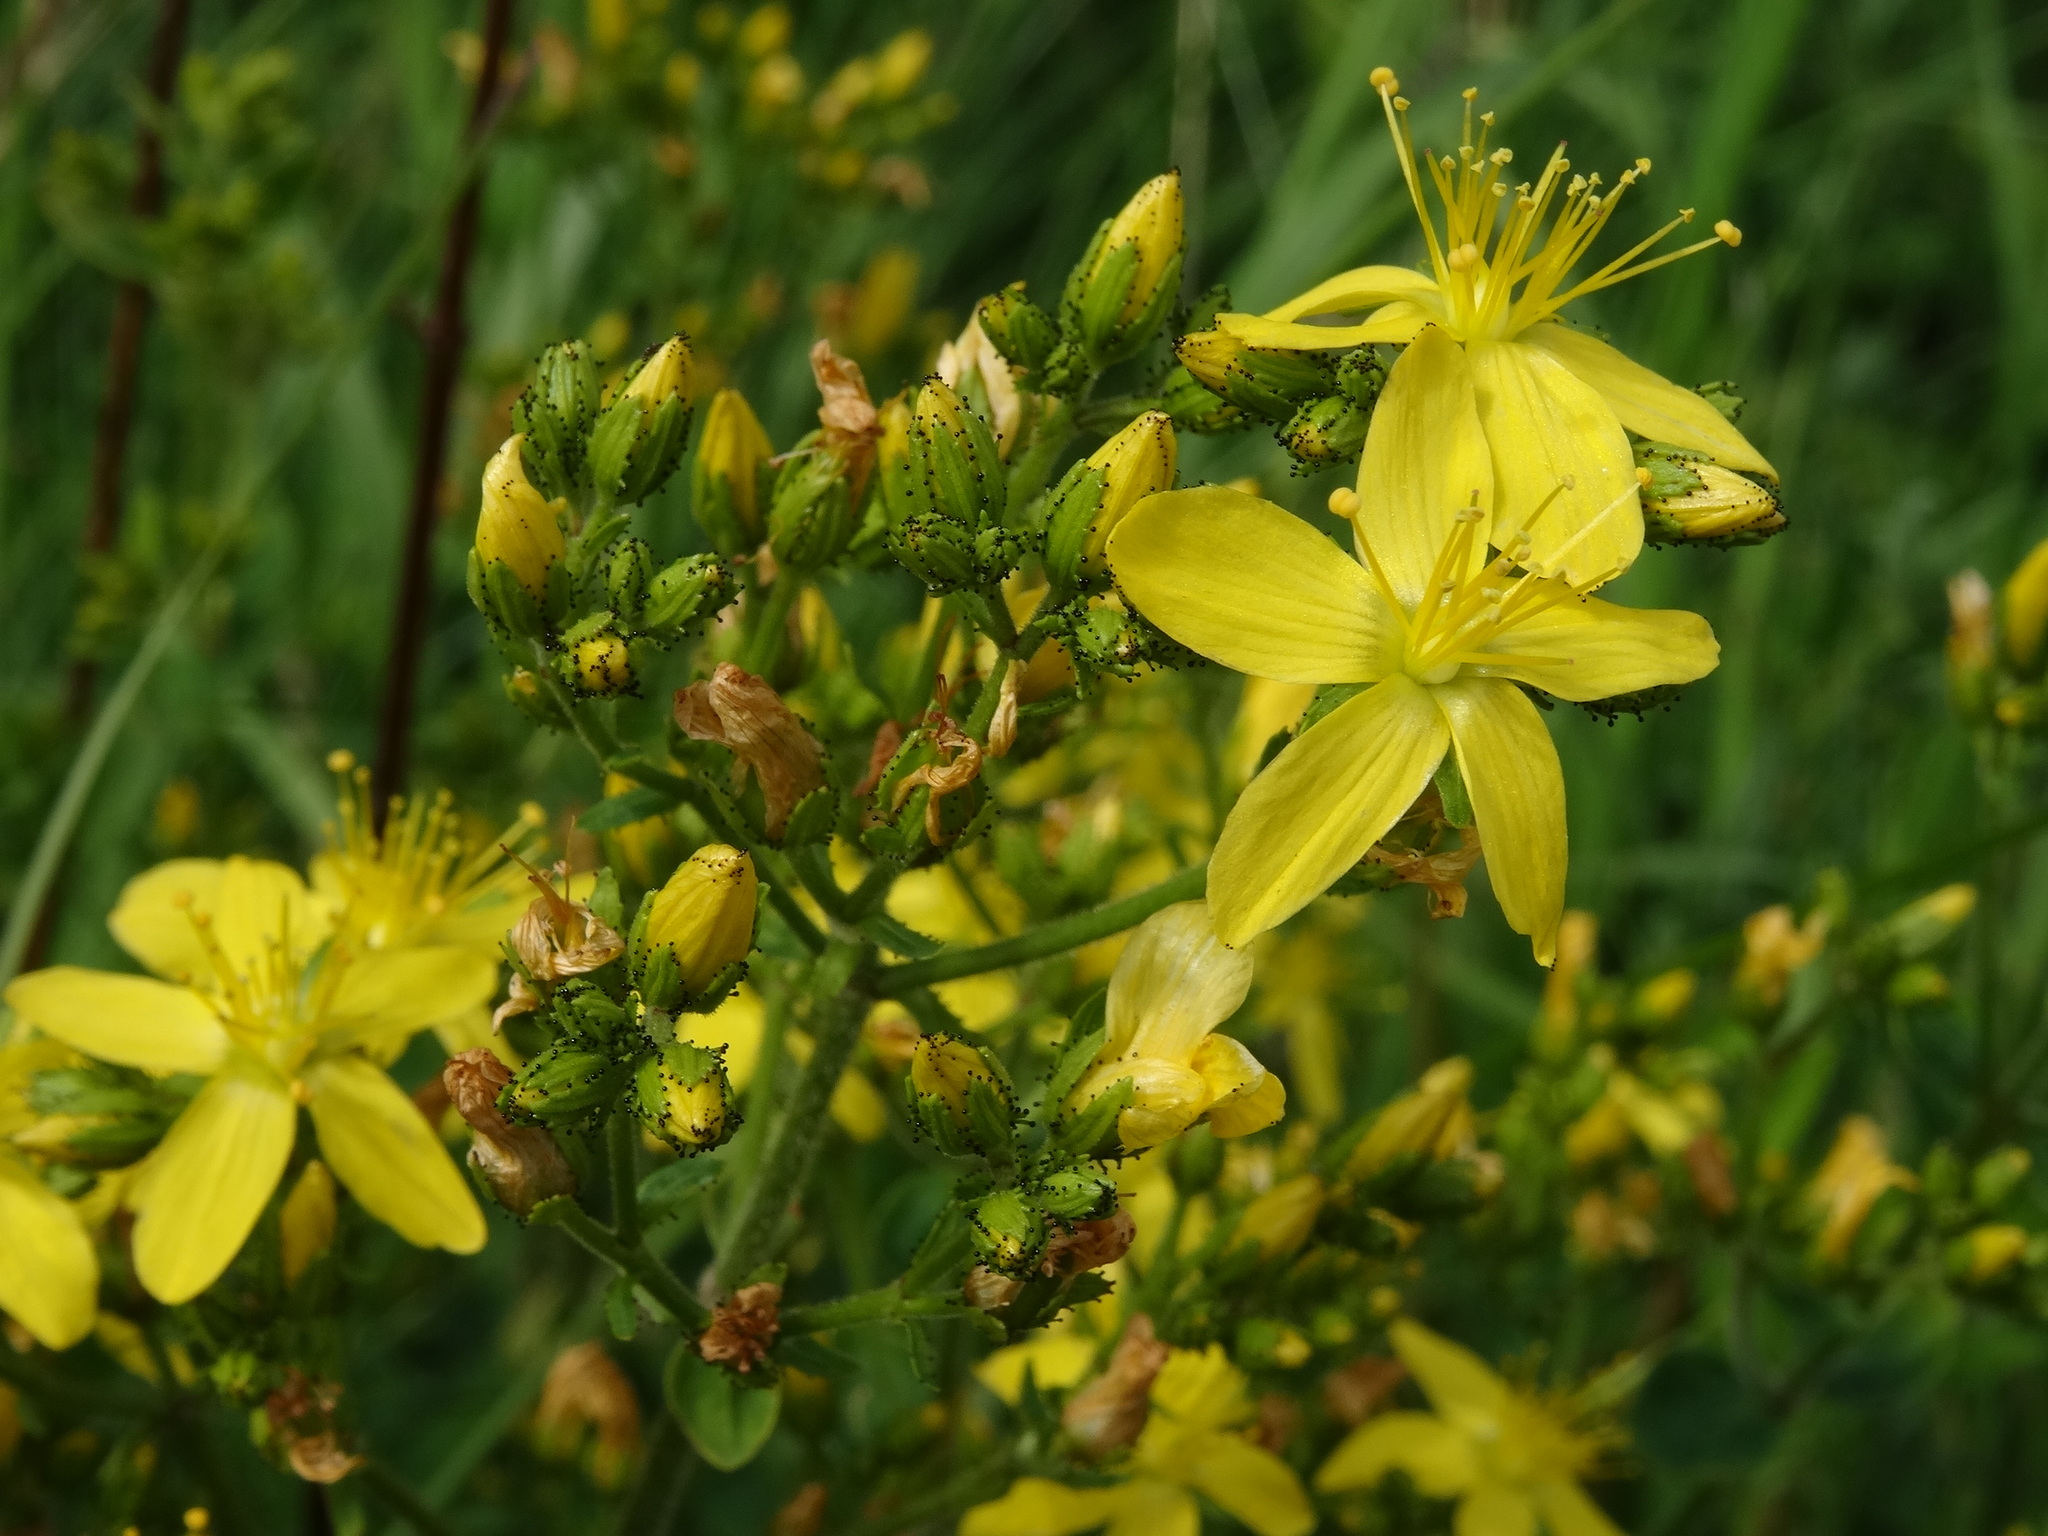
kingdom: Plantae
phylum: Tracheophyta
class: Magnoliopsida
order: Malpighiales
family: Hypericaceae
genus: Hypericum
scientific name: Hypericum hirsutum
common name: Hairy st. john's-wort
